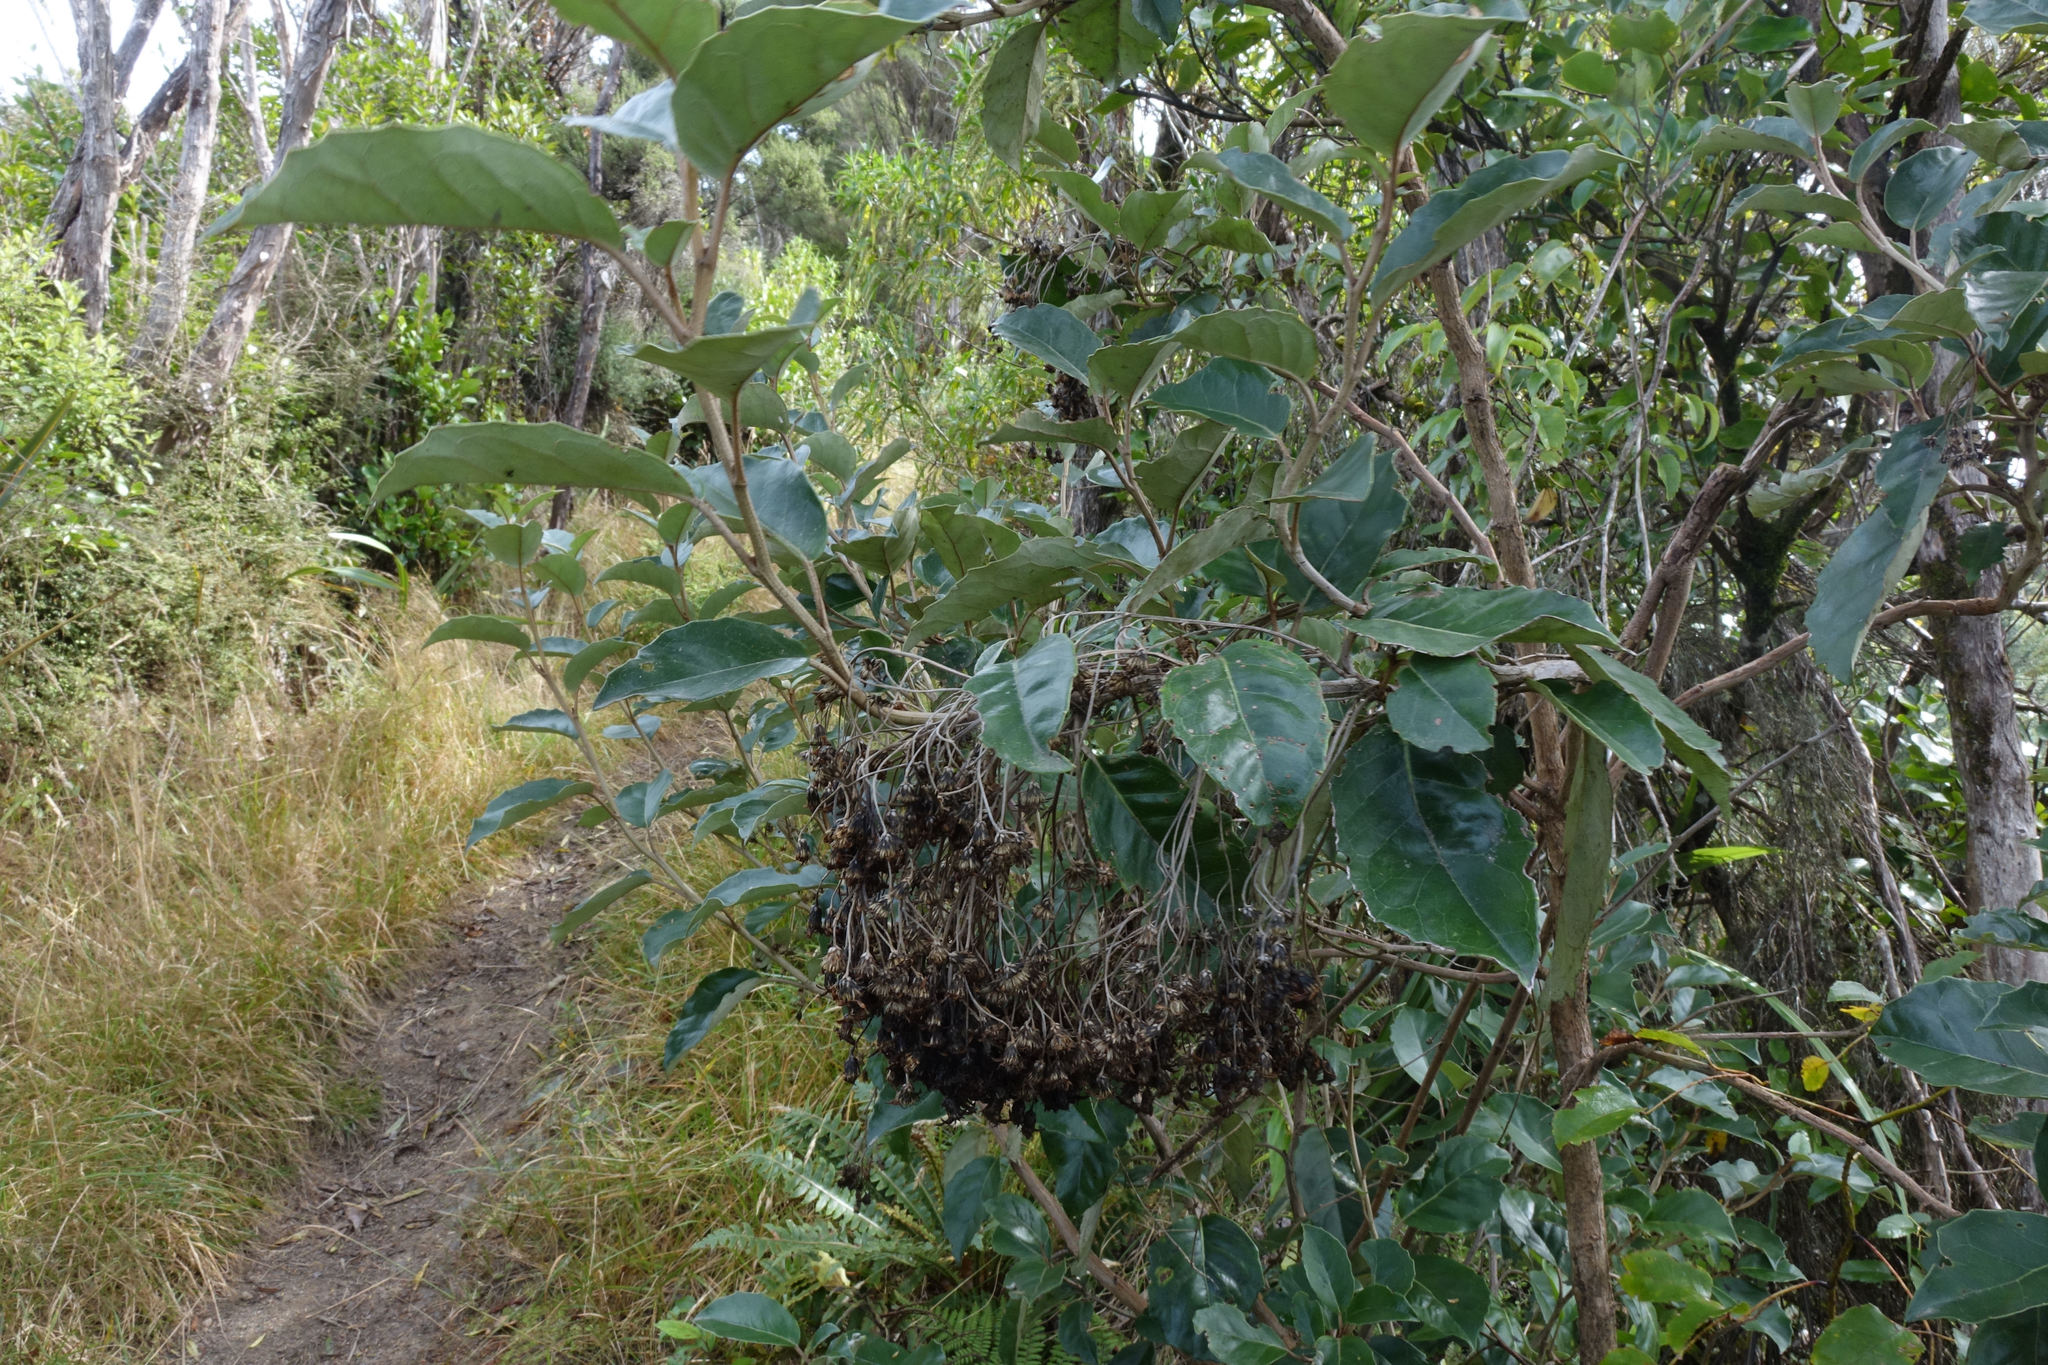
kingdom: Plantae
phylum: Tracheophyta
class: Magnoliopsida
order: Asterales
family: Asteraceae
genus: Olearia
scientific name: Olearia arborescens
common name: Glossy tree daisy
